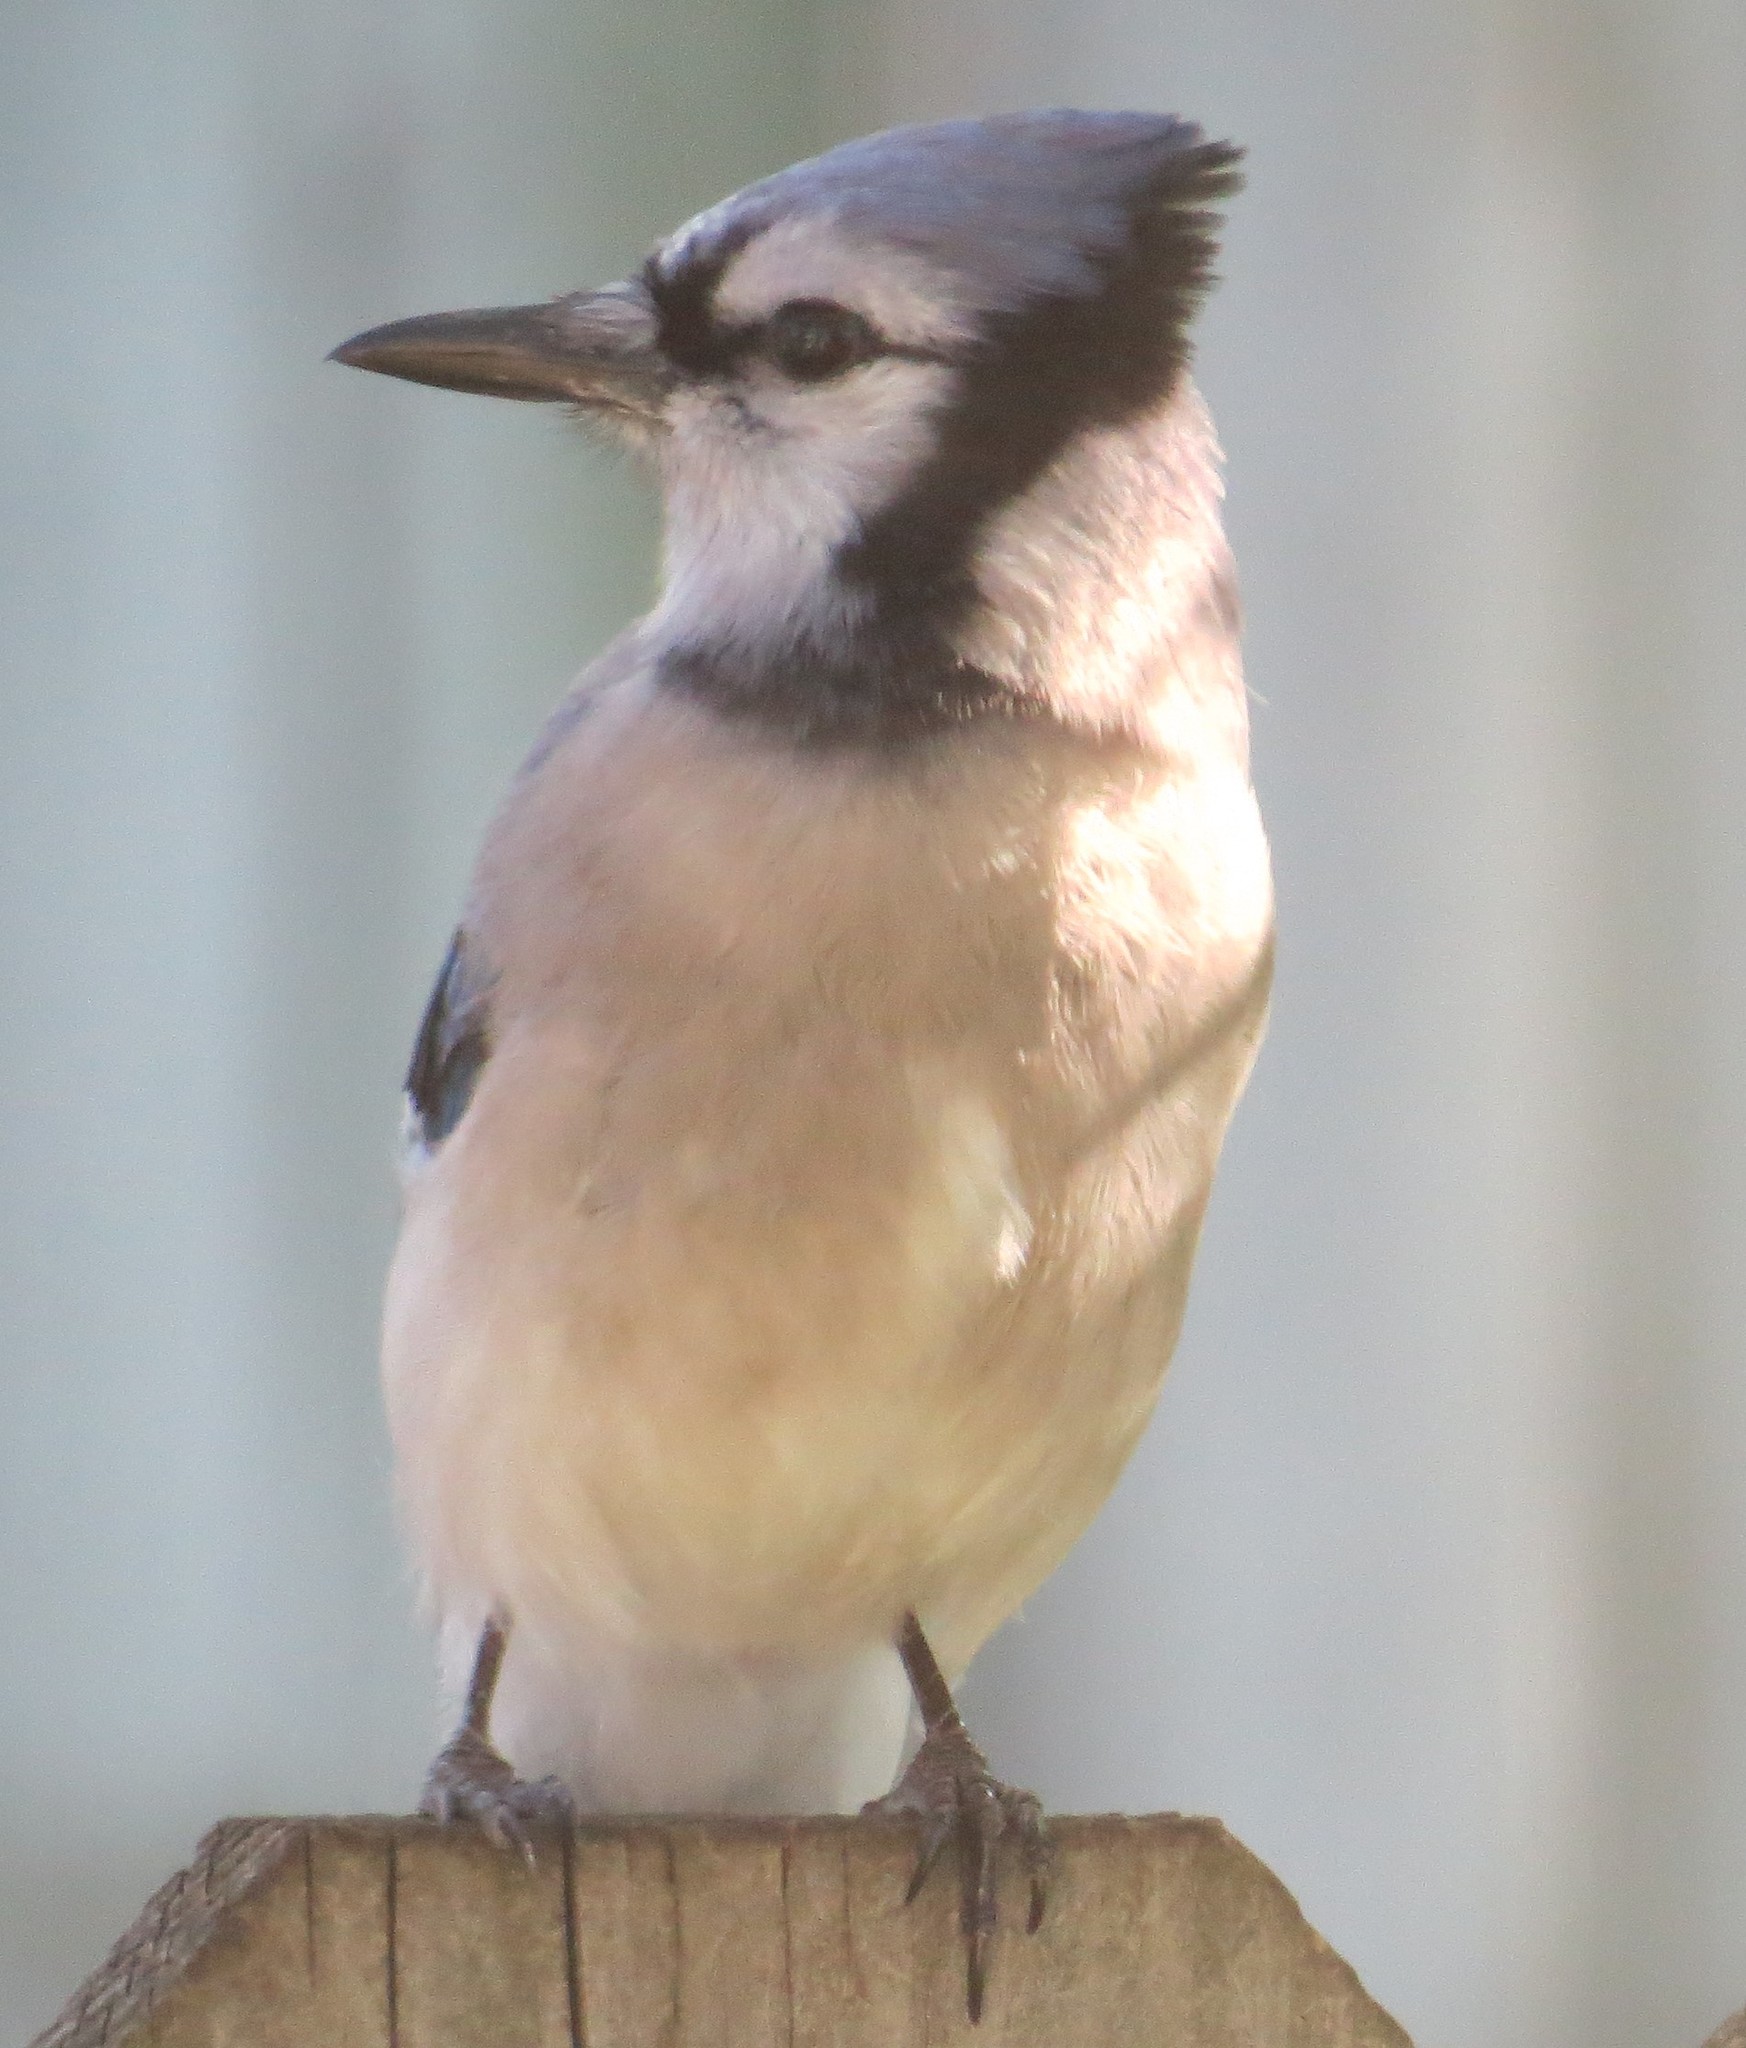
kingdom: Animalia
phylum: Chordata
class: Aves
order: Passeriformes
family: Corvidae
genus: Cyanocitta
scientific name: Cyanocitta cristata
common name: Blue jay
